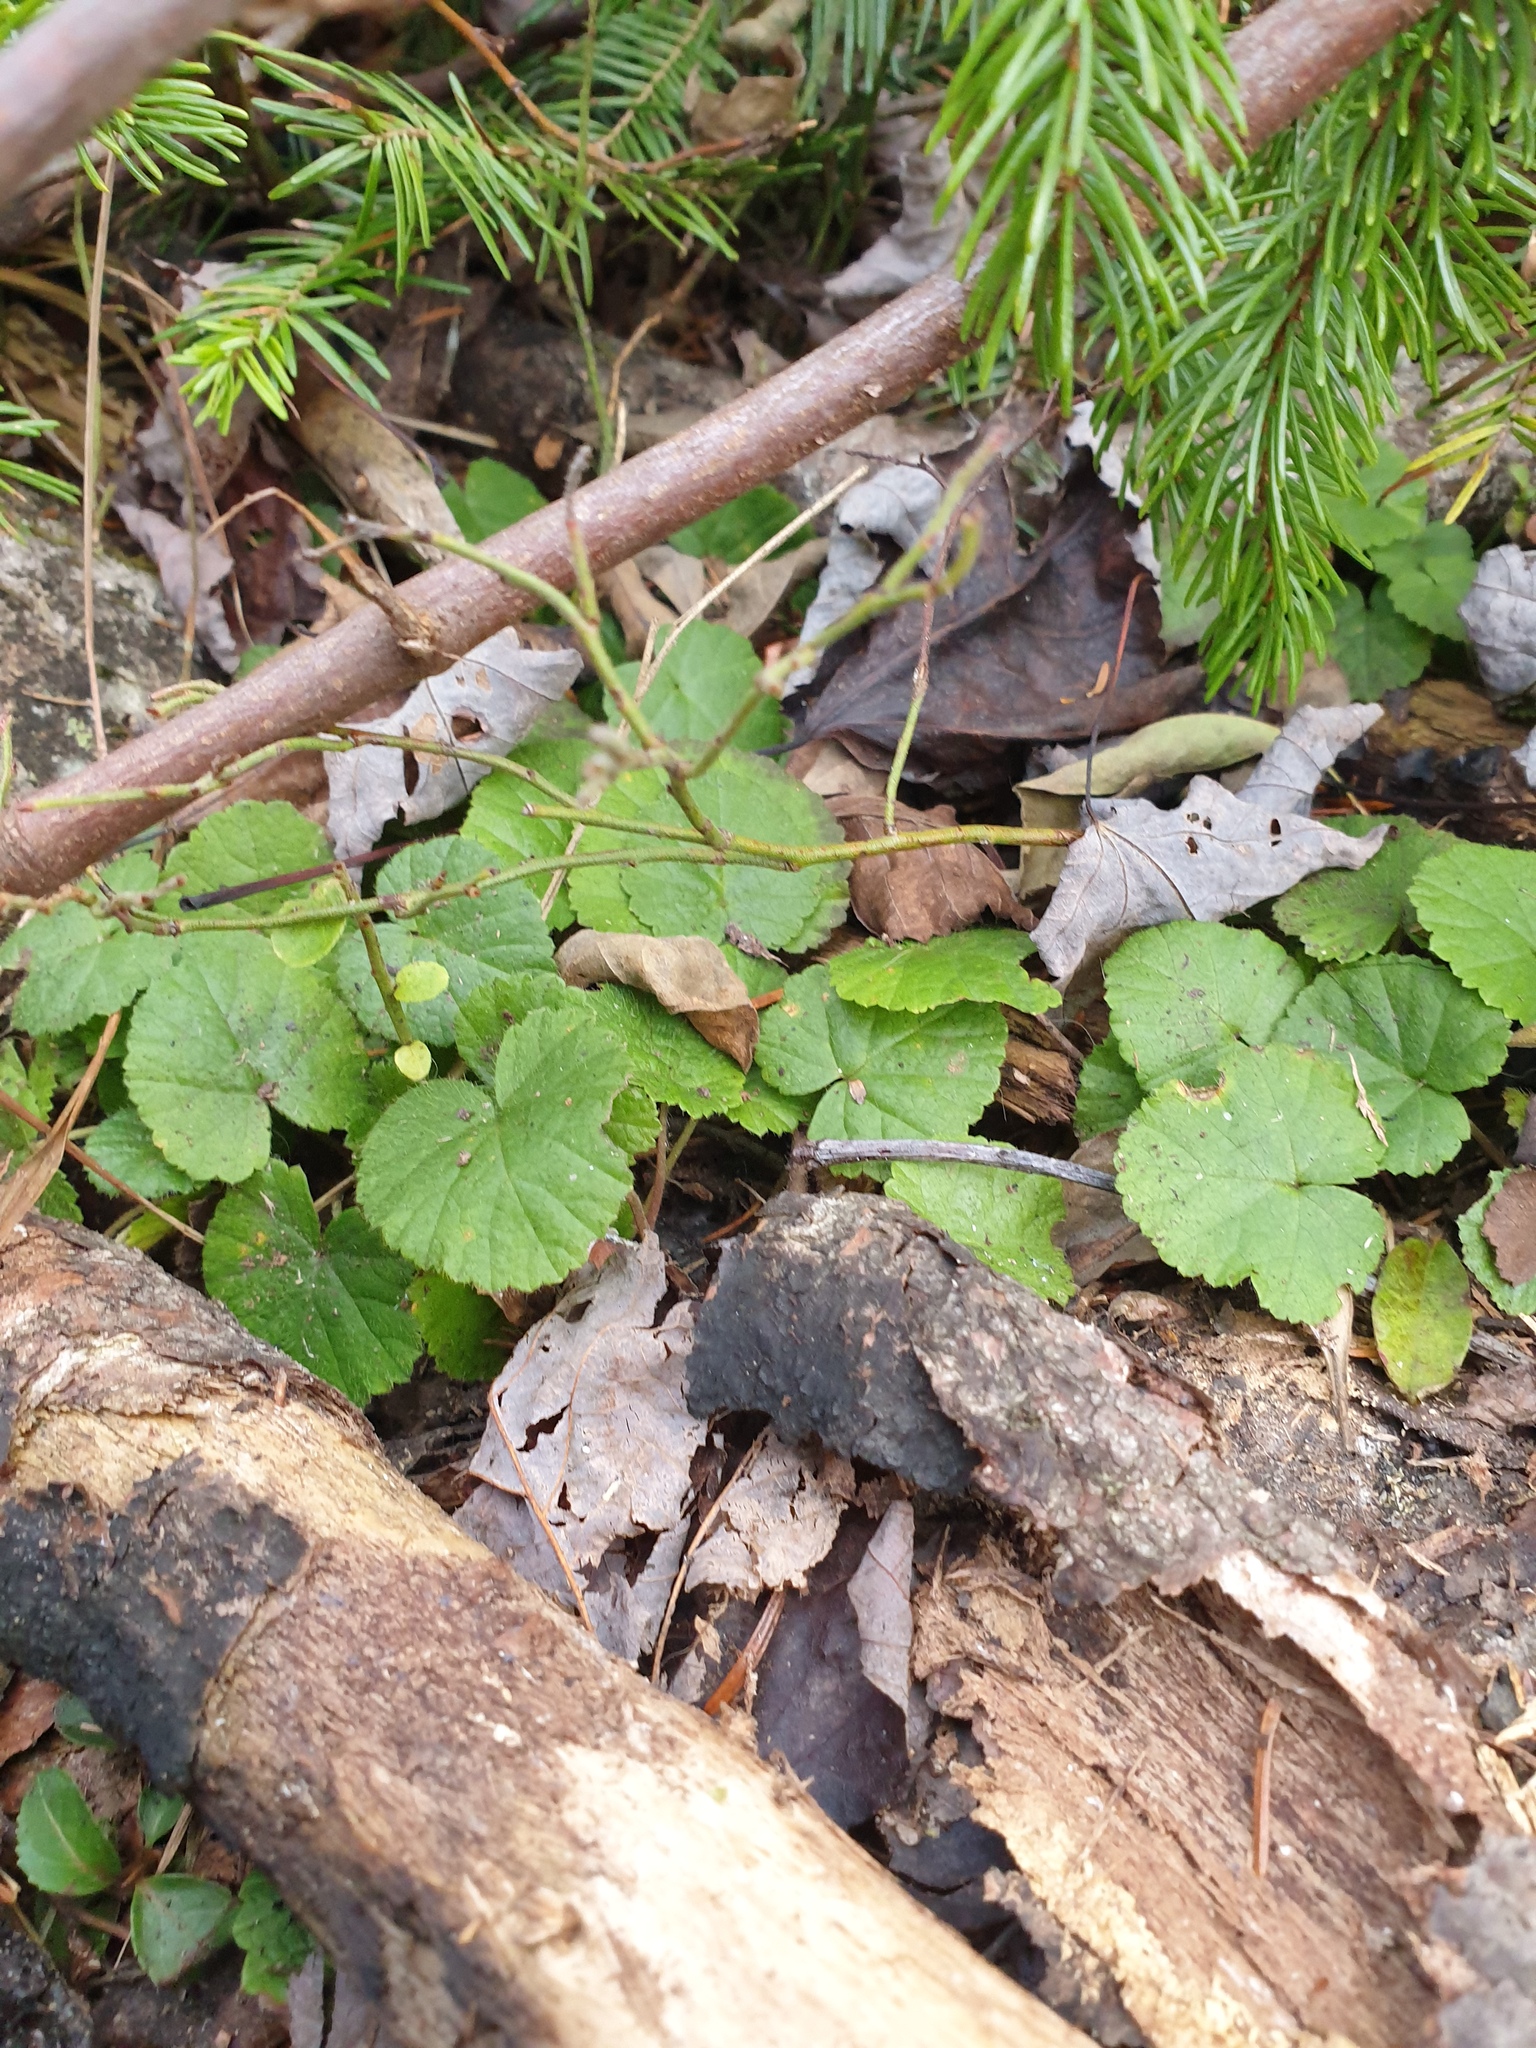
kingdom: Plantae
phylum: Tracheophyta
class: Magnoliopsida
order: Rosales
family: Rosaceae
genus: Dalibarda
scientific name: Dalibarda repens
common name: Dewdrop
